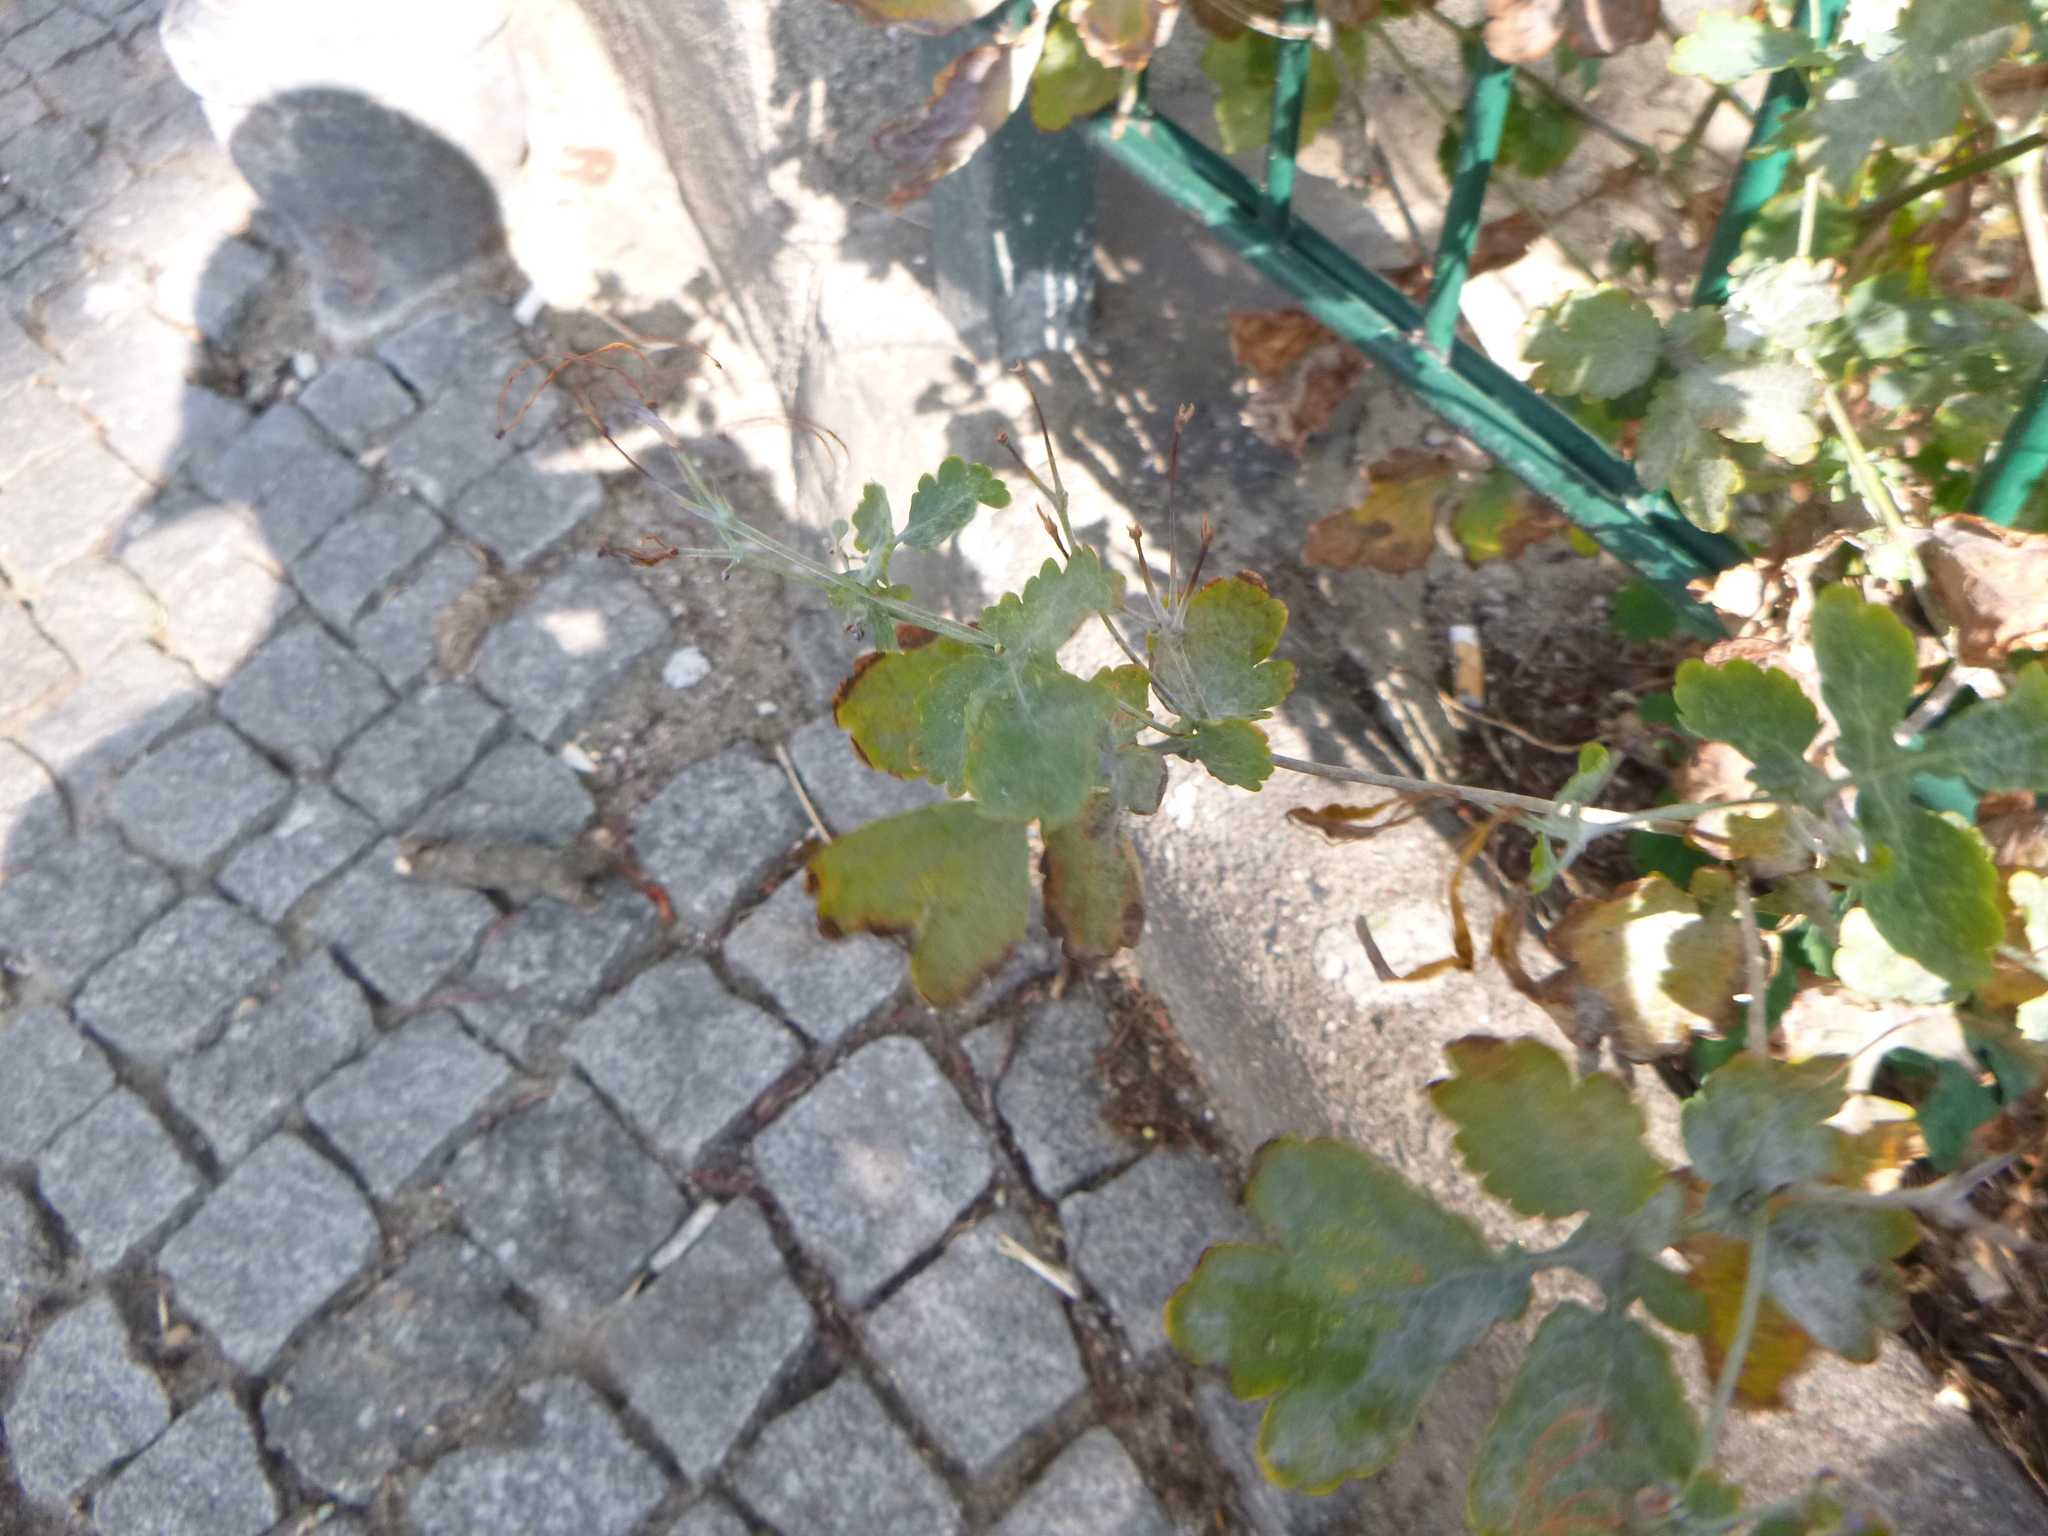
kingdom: Plantae
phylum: Tracheophyta
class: Magnoliopsida
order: Ranunculales
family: Papaveraceae
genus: Chelidonium
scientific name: Chelidonium majus
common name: Greater celandine
